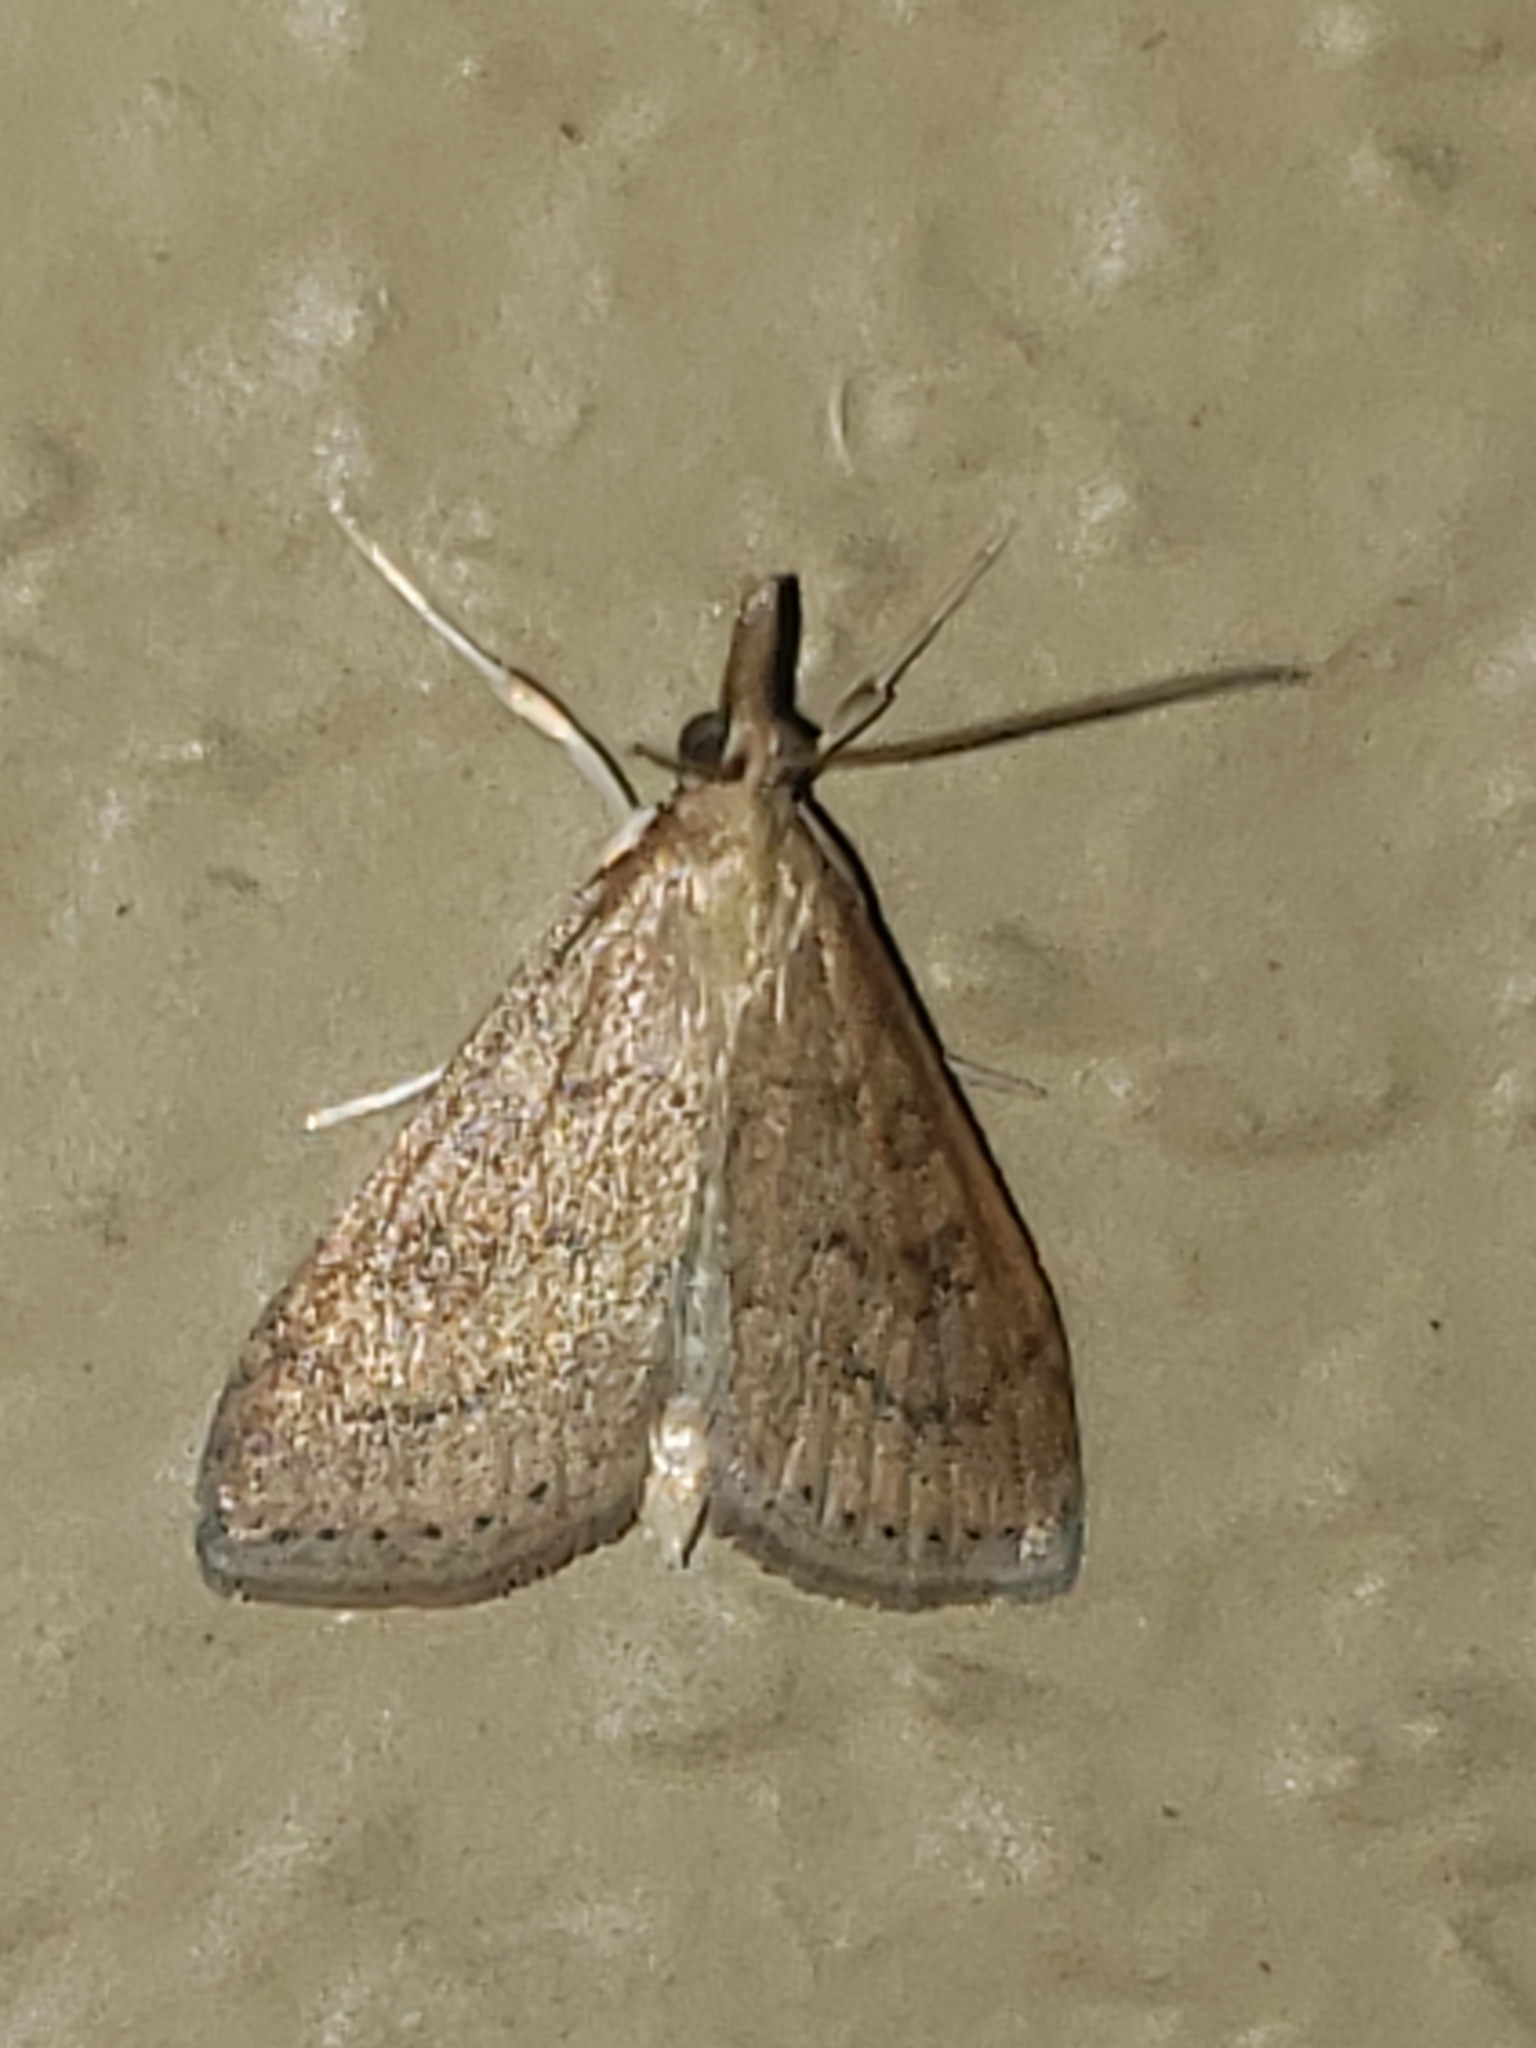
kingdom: Animalia
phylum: Arthropoda
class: Insecta
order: Lepidoptera
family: Crambidae
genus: Udea
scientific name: Udea rubigalis
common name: Celery leaftier moth
